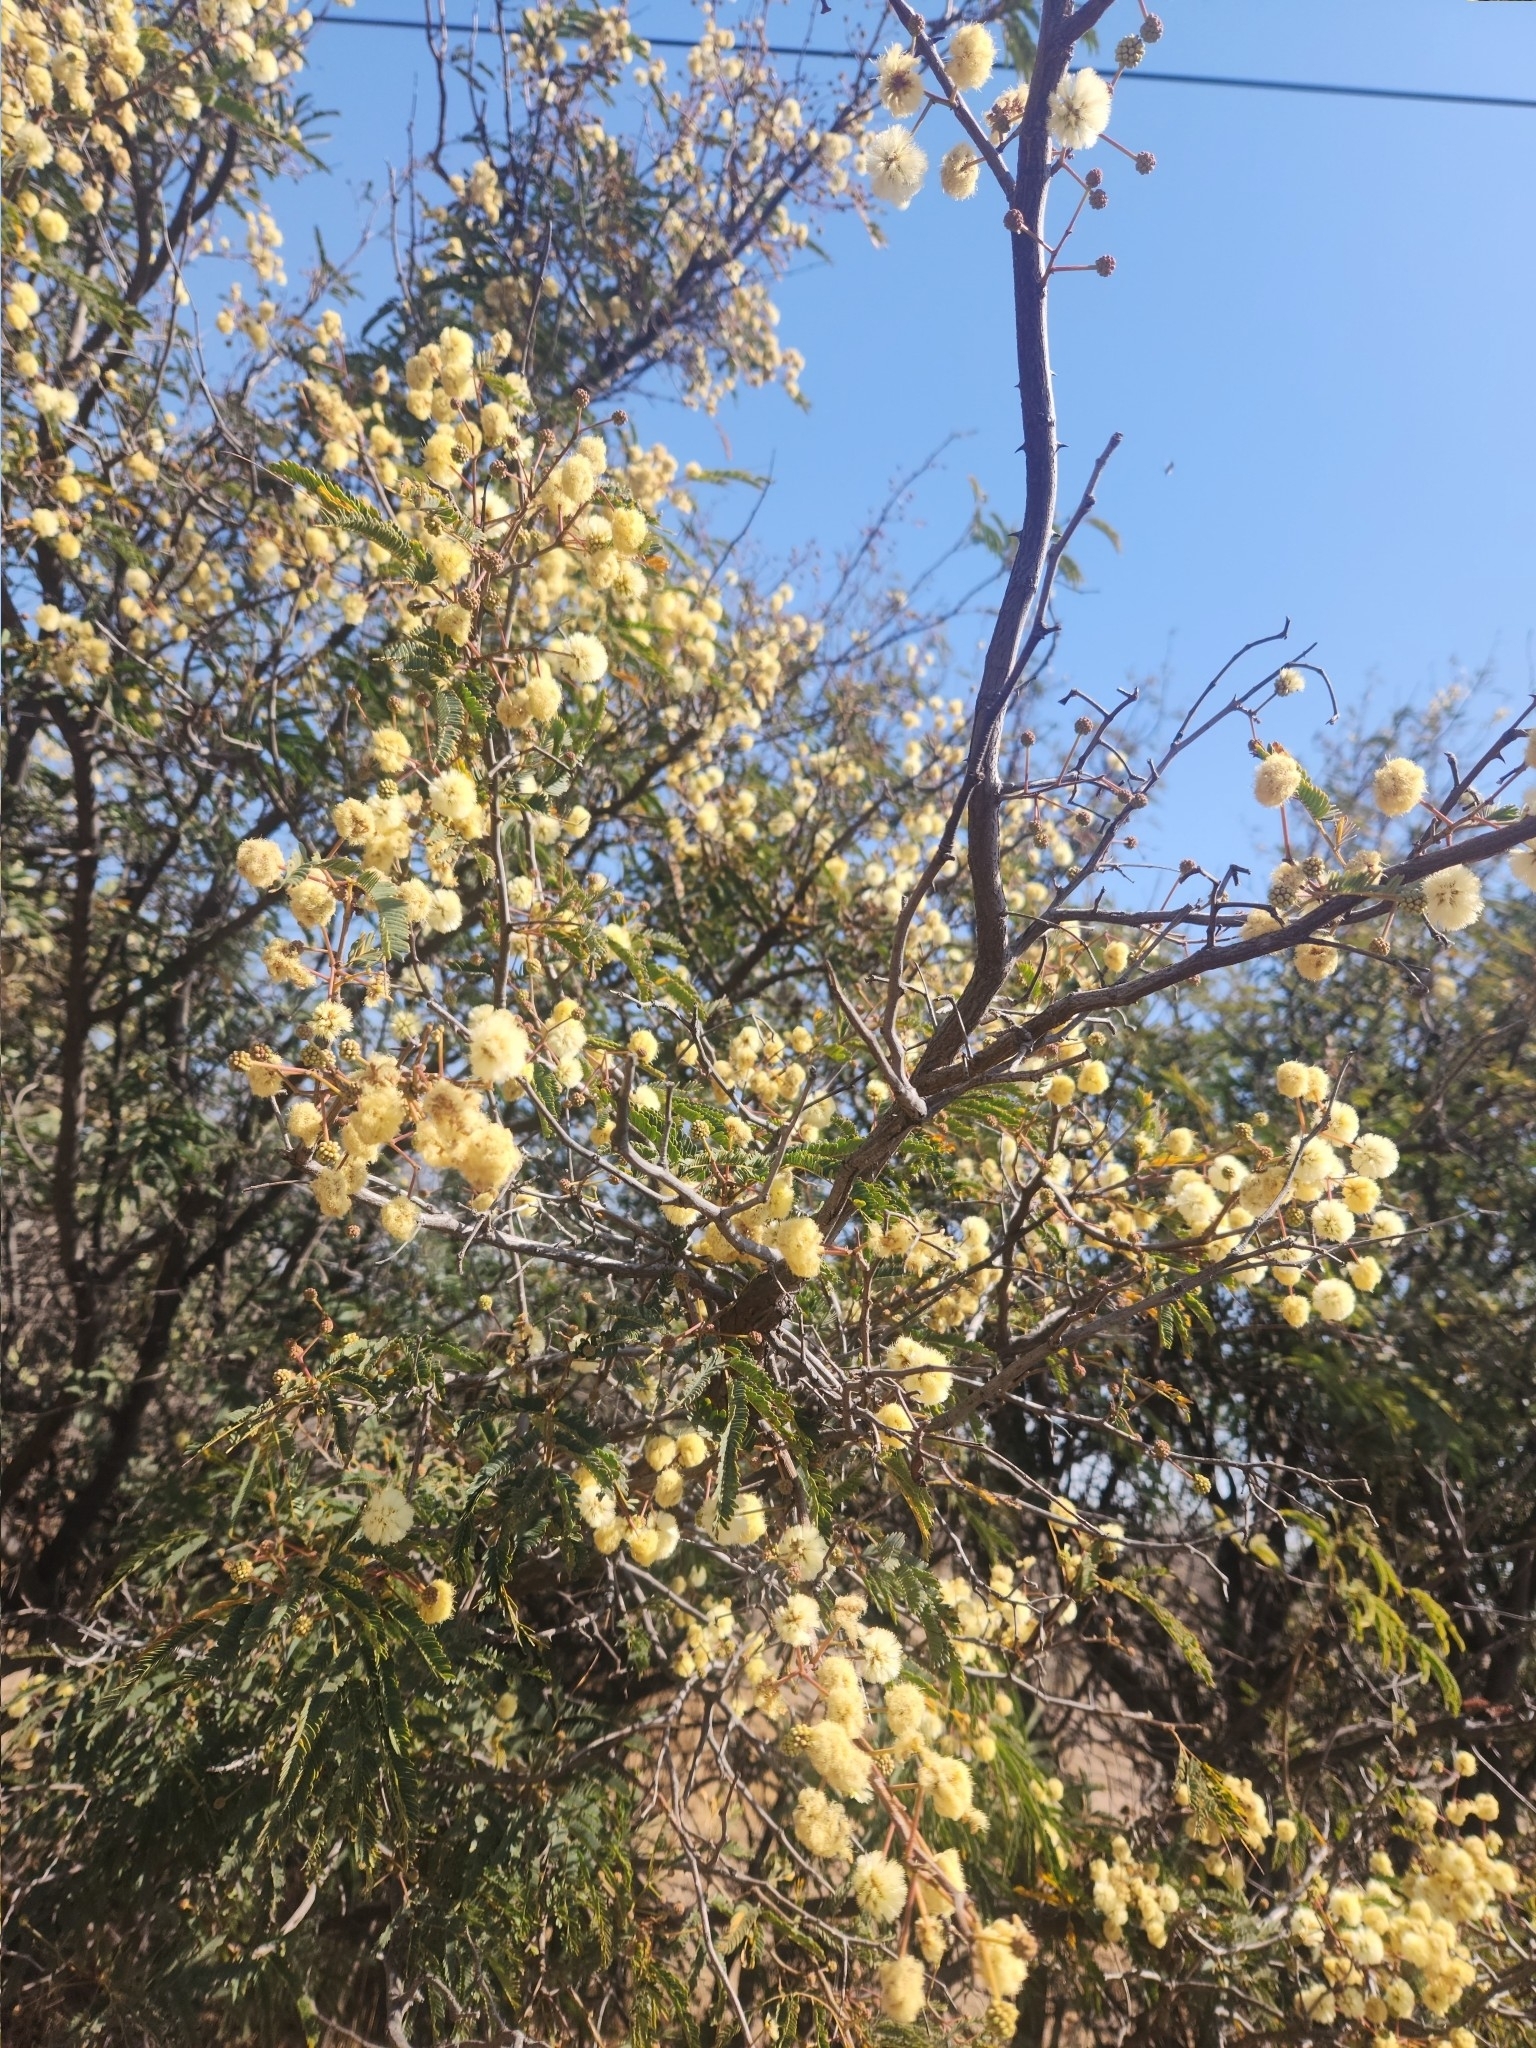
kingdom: Plantae
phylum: Tracheophyta
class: Magnoliopsida
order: Fabales
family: Fabaceae
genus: Senegalia
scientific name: Senegalia praecox
